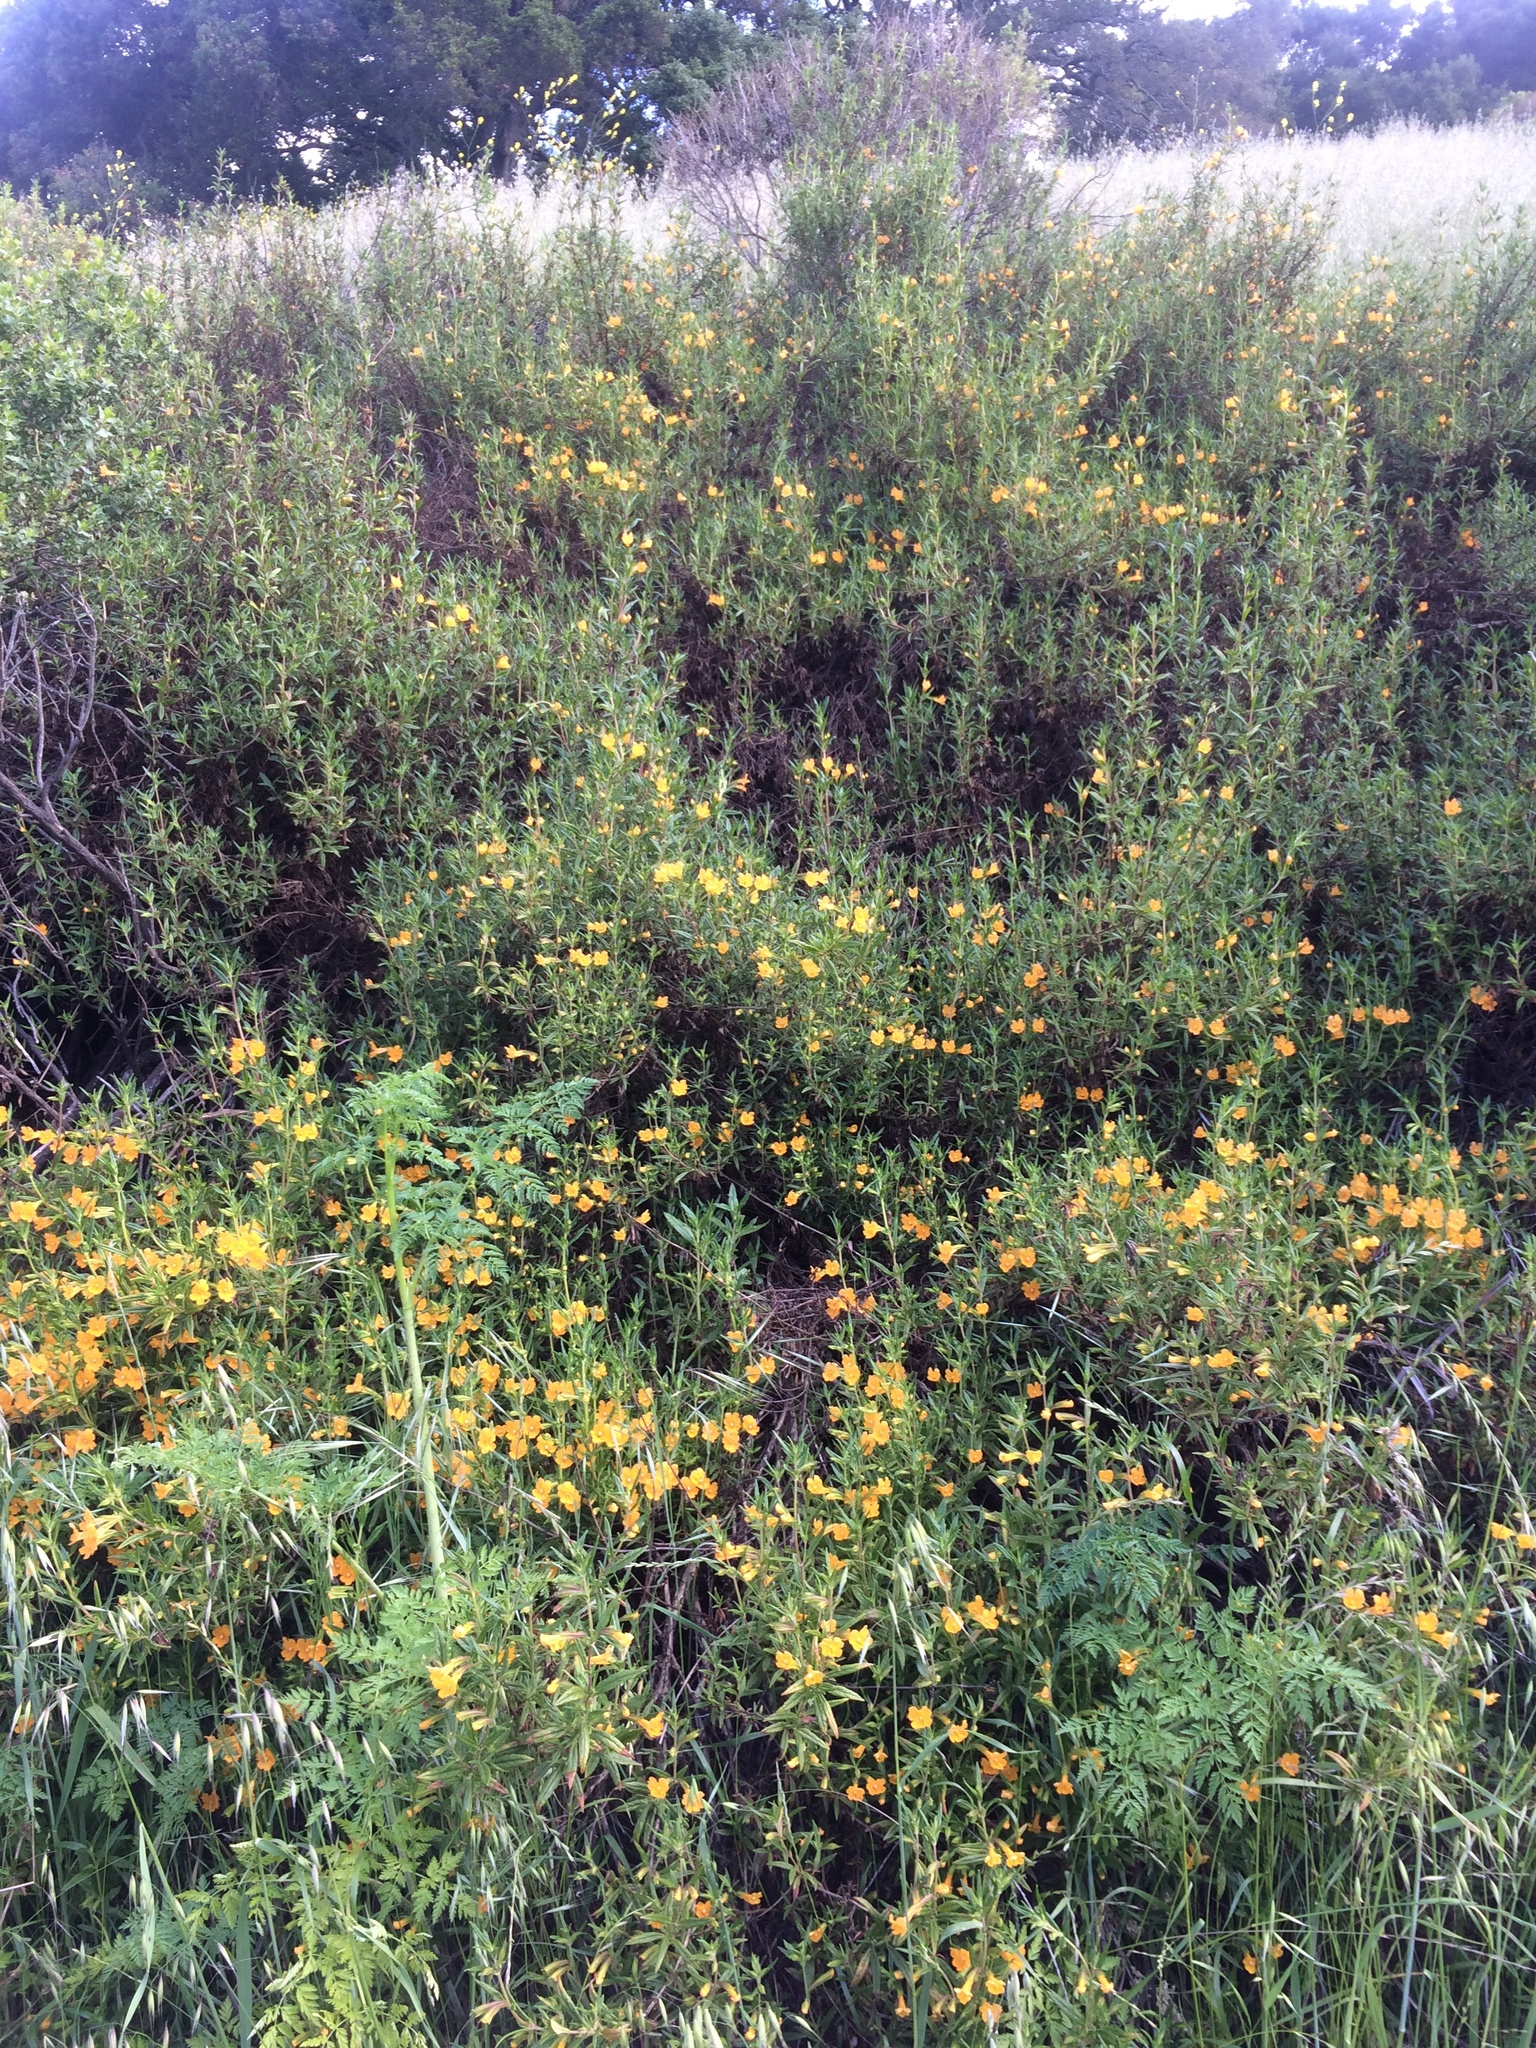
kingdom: Plantae
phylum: Tracheophyta
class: Magnoliopsida
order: Lamiales
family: Phrymaceae
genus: Diplacus
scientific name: Diplacus aurantiacus
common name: Bush monkey-flower
